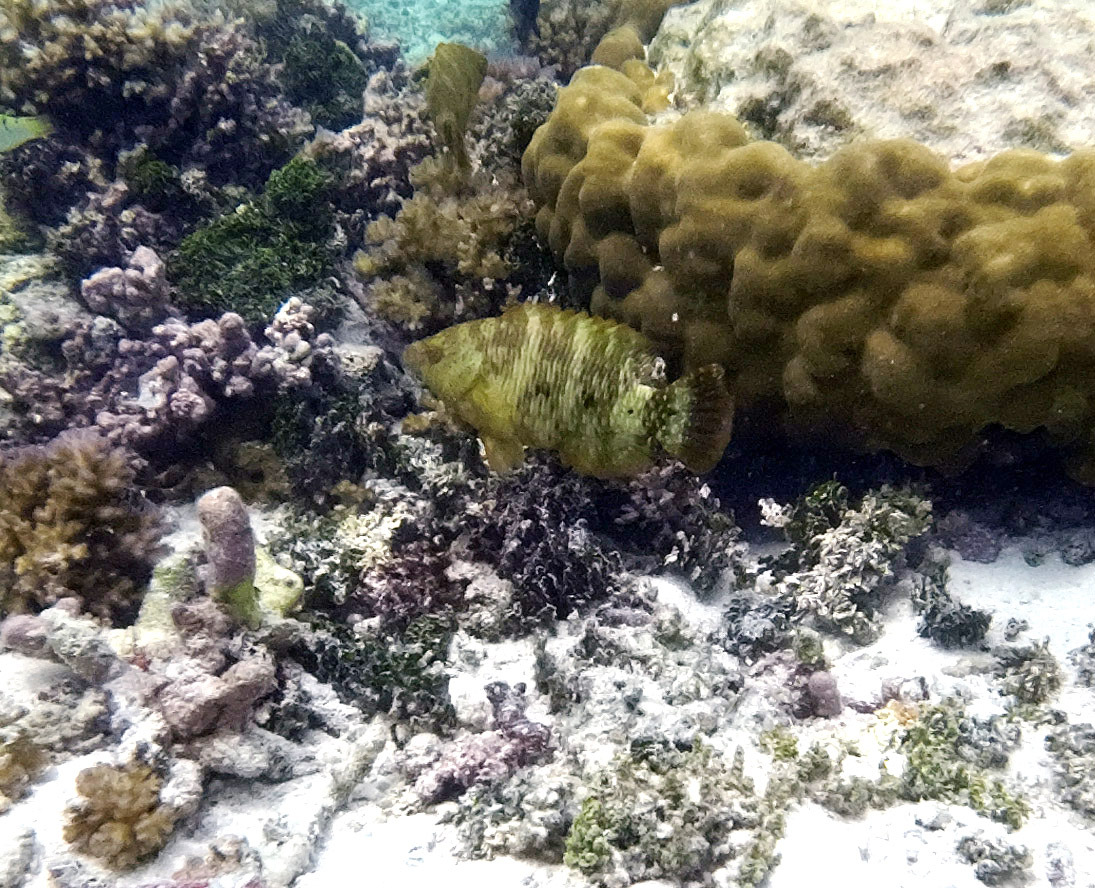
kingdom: Animalia
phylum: Chordata
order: Perciformes
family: Labridae
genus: Cheilinus
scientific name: Cheilinus trilobatus
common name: Tripletail maori wrasse
